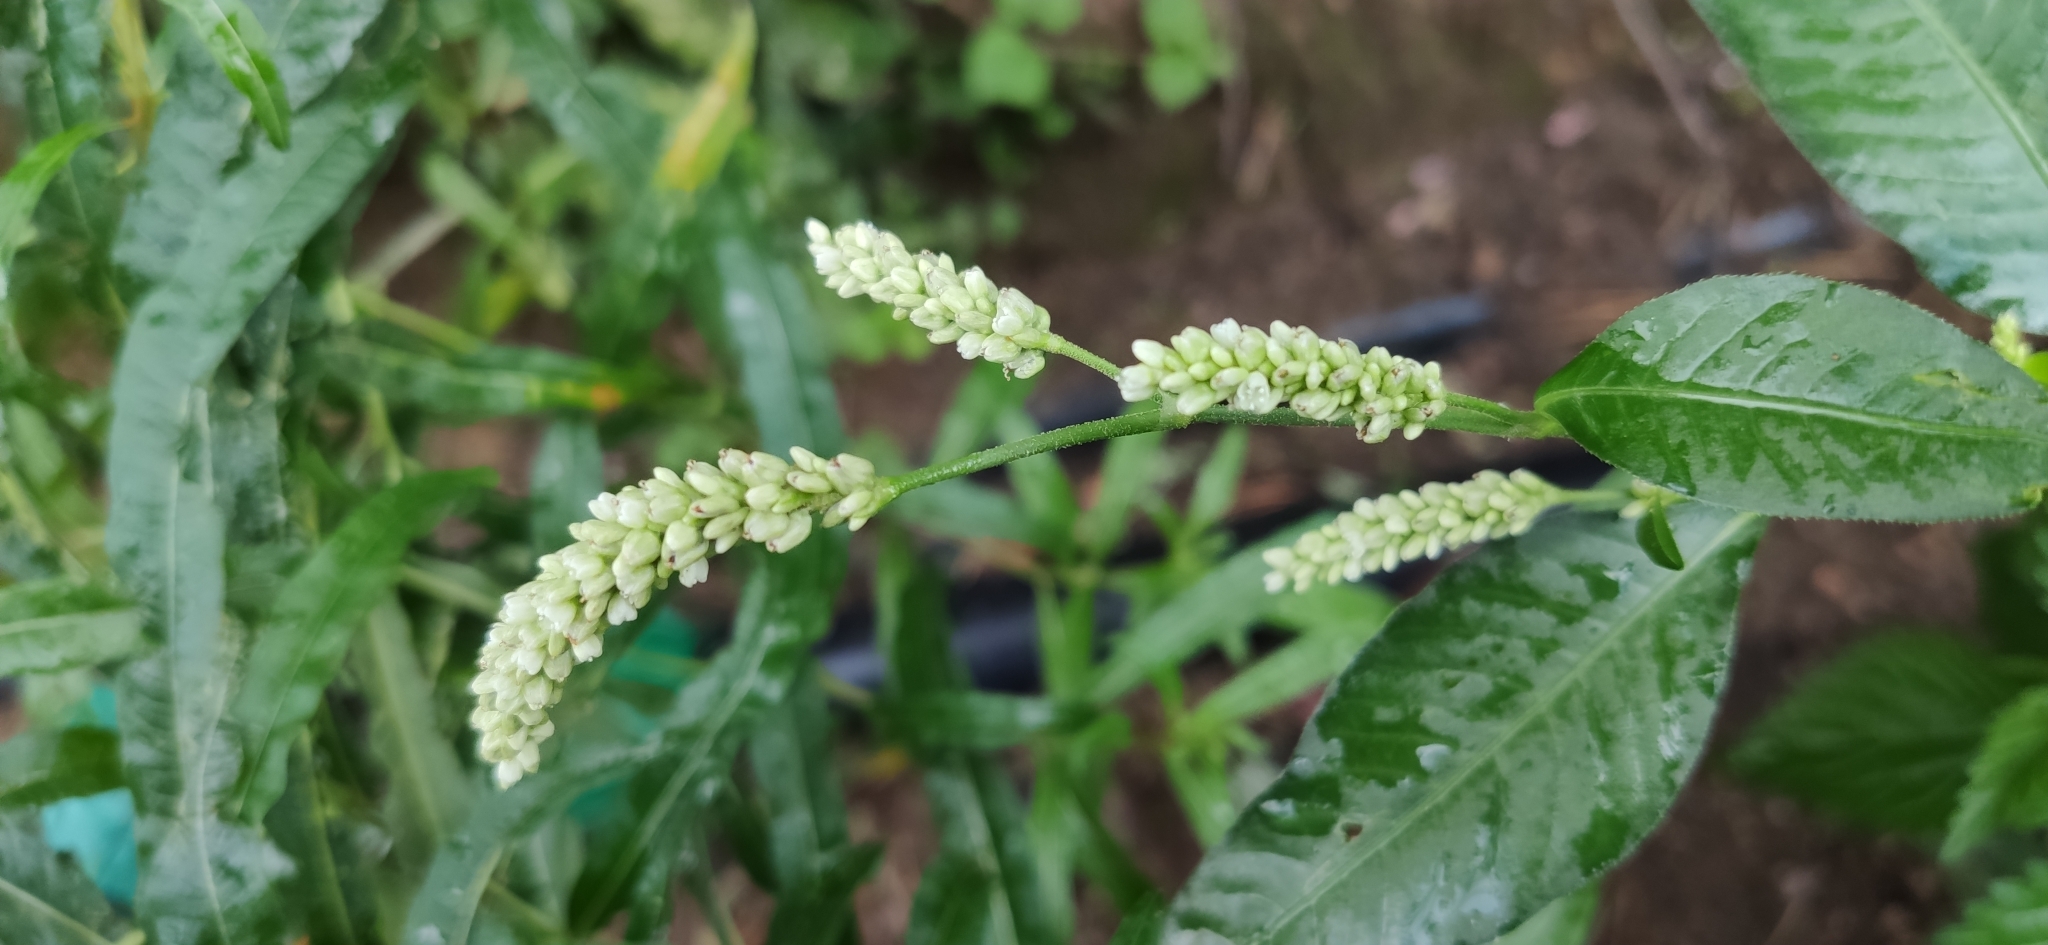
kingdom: Plantae
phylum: Tracheophyta
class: Magnoliopsida
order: Caryophyllales
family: Polygonaceae
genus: Persicaria
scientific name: Persicaria lapathifolia
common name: Curlytop knotweed
